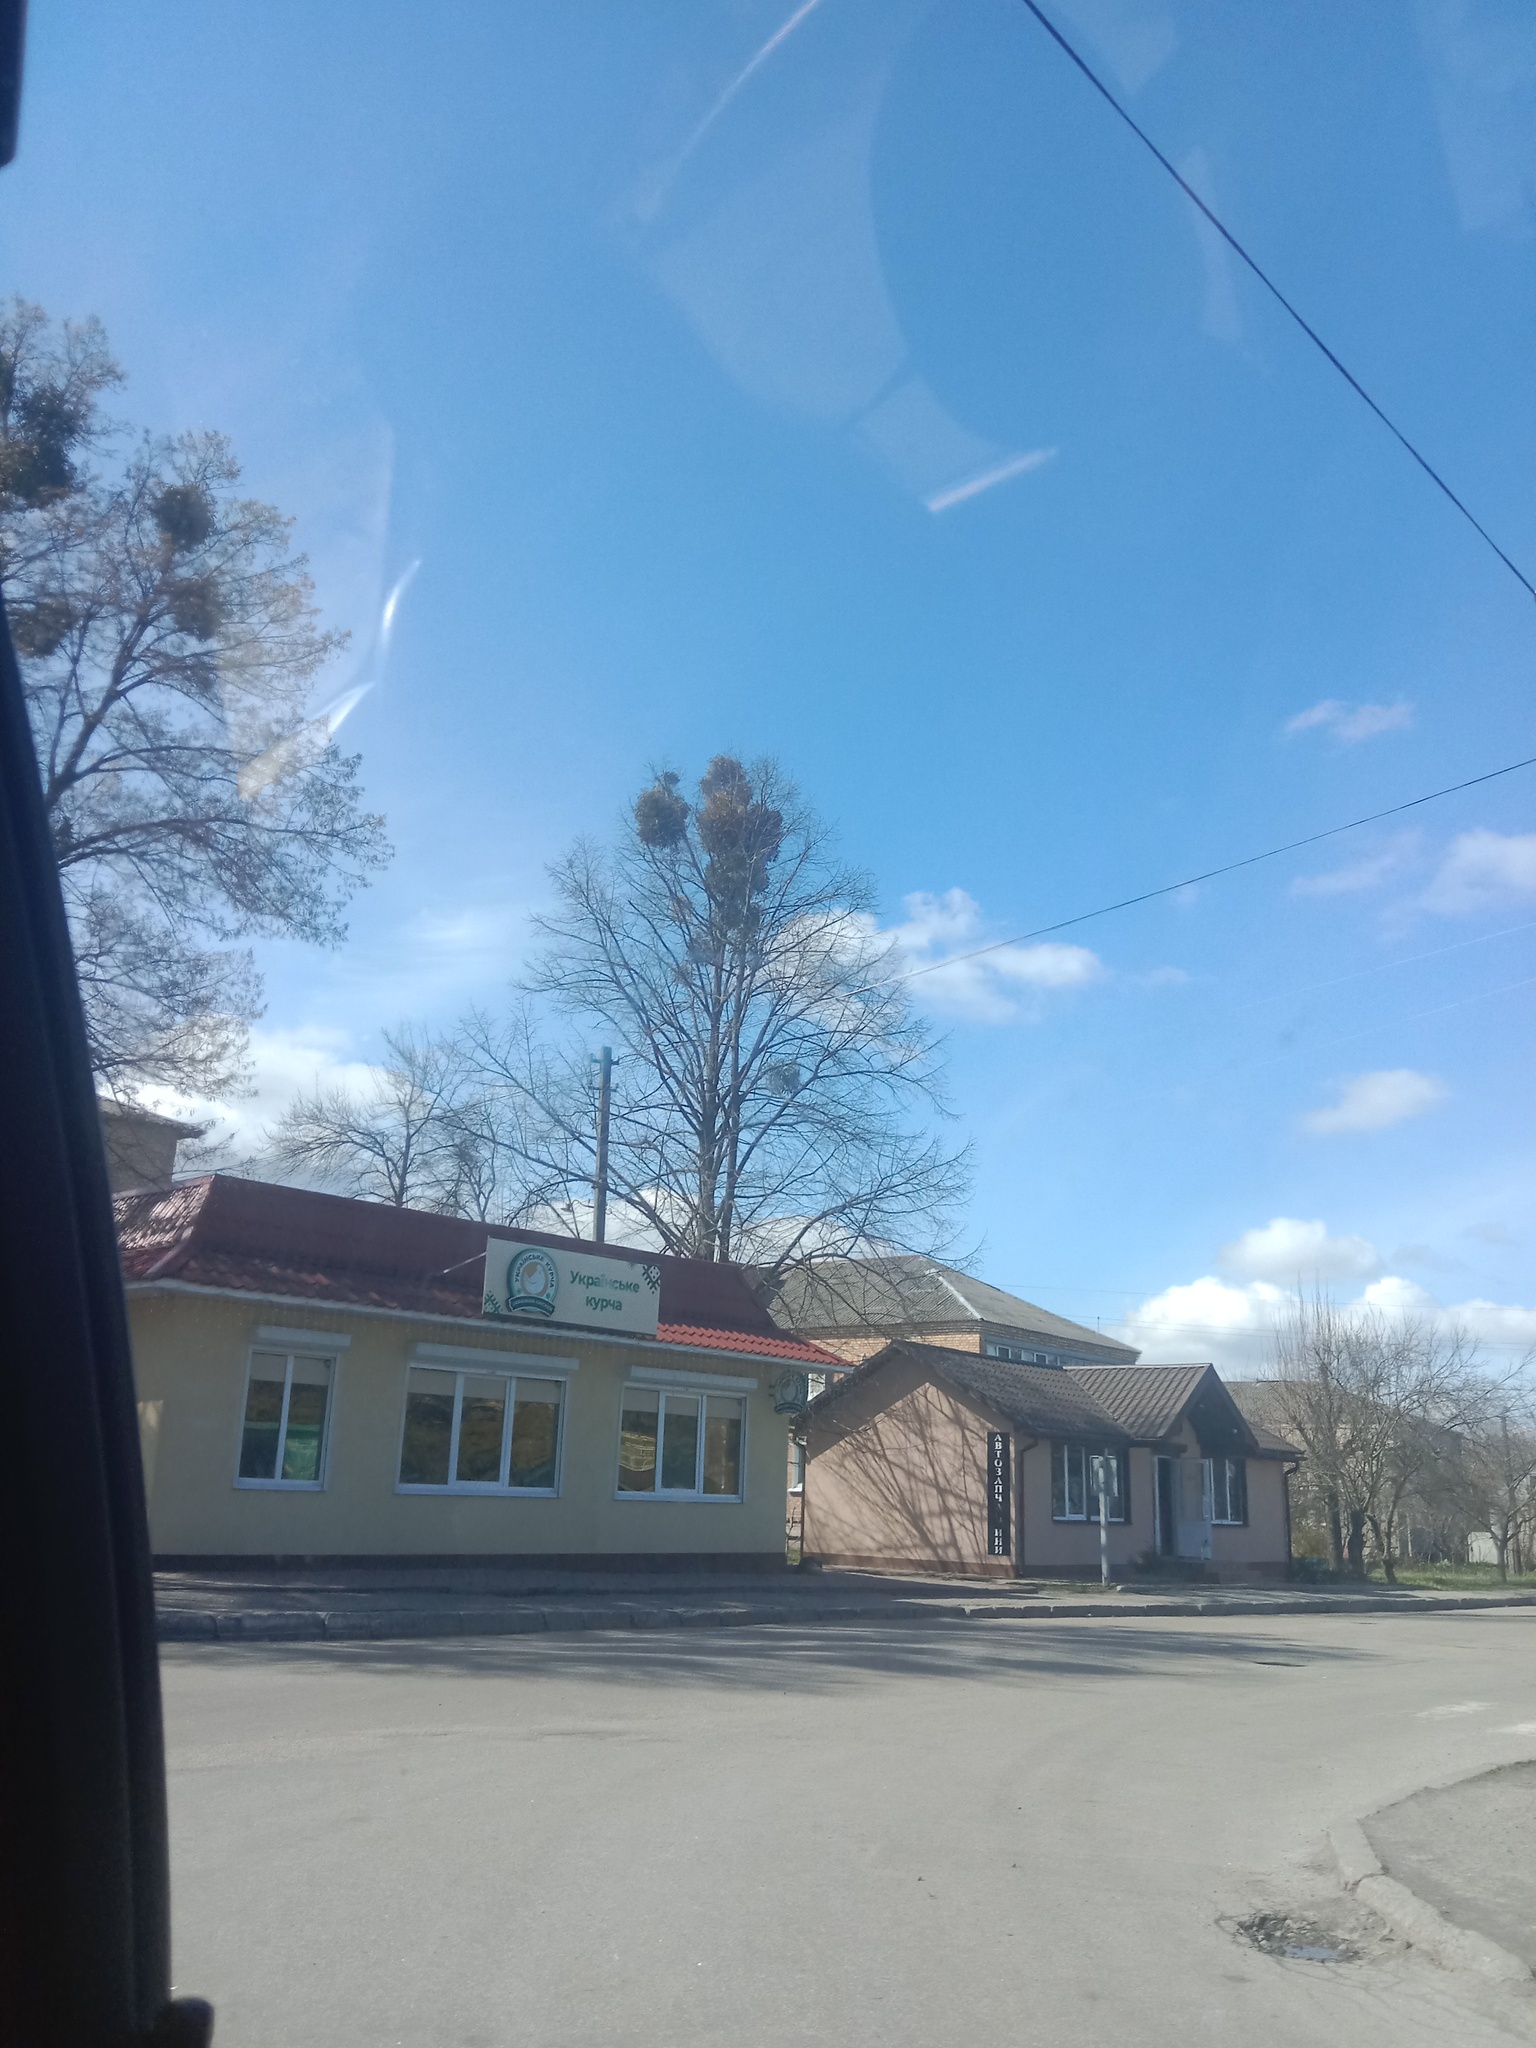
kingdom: Plantae
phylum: Tracheophyta
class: Magnoliopsida
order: Santalales
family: Viscaceae
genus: Viscum
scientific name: Viscum album
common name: Mistletoe
